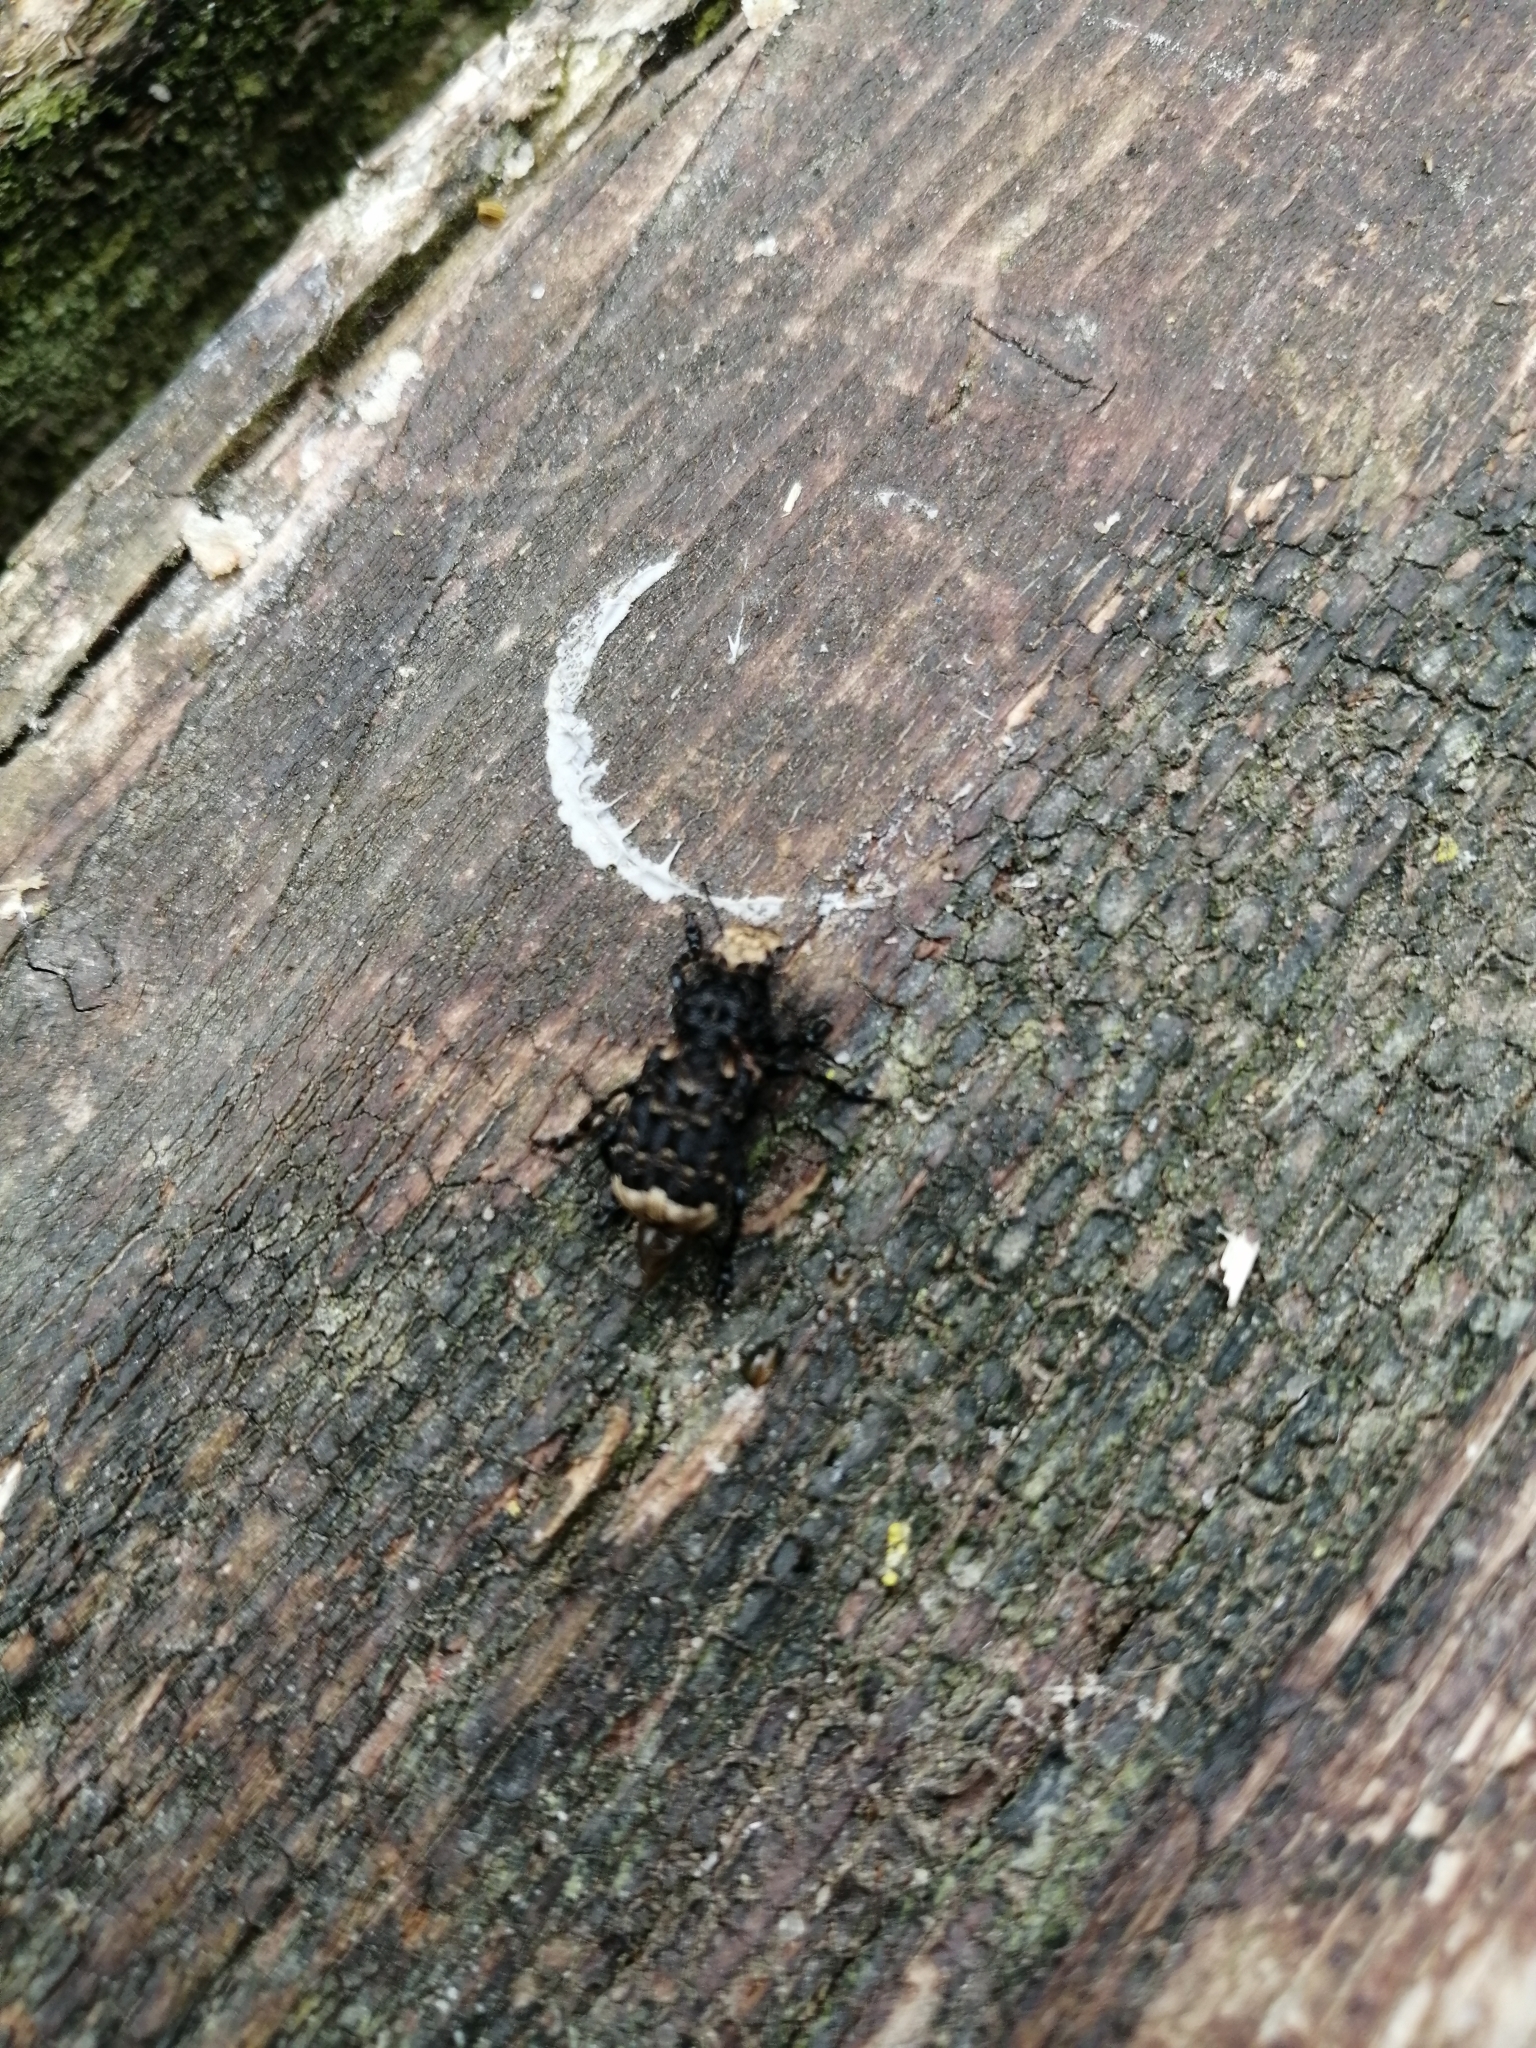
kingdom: Animalia
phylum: Arthropoda
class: Insecta
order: Coleoptera
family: Anthribidae
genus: Platyrhinus
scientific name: Platyrhinus resinosus
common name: Cramp-ball fungus weevil
